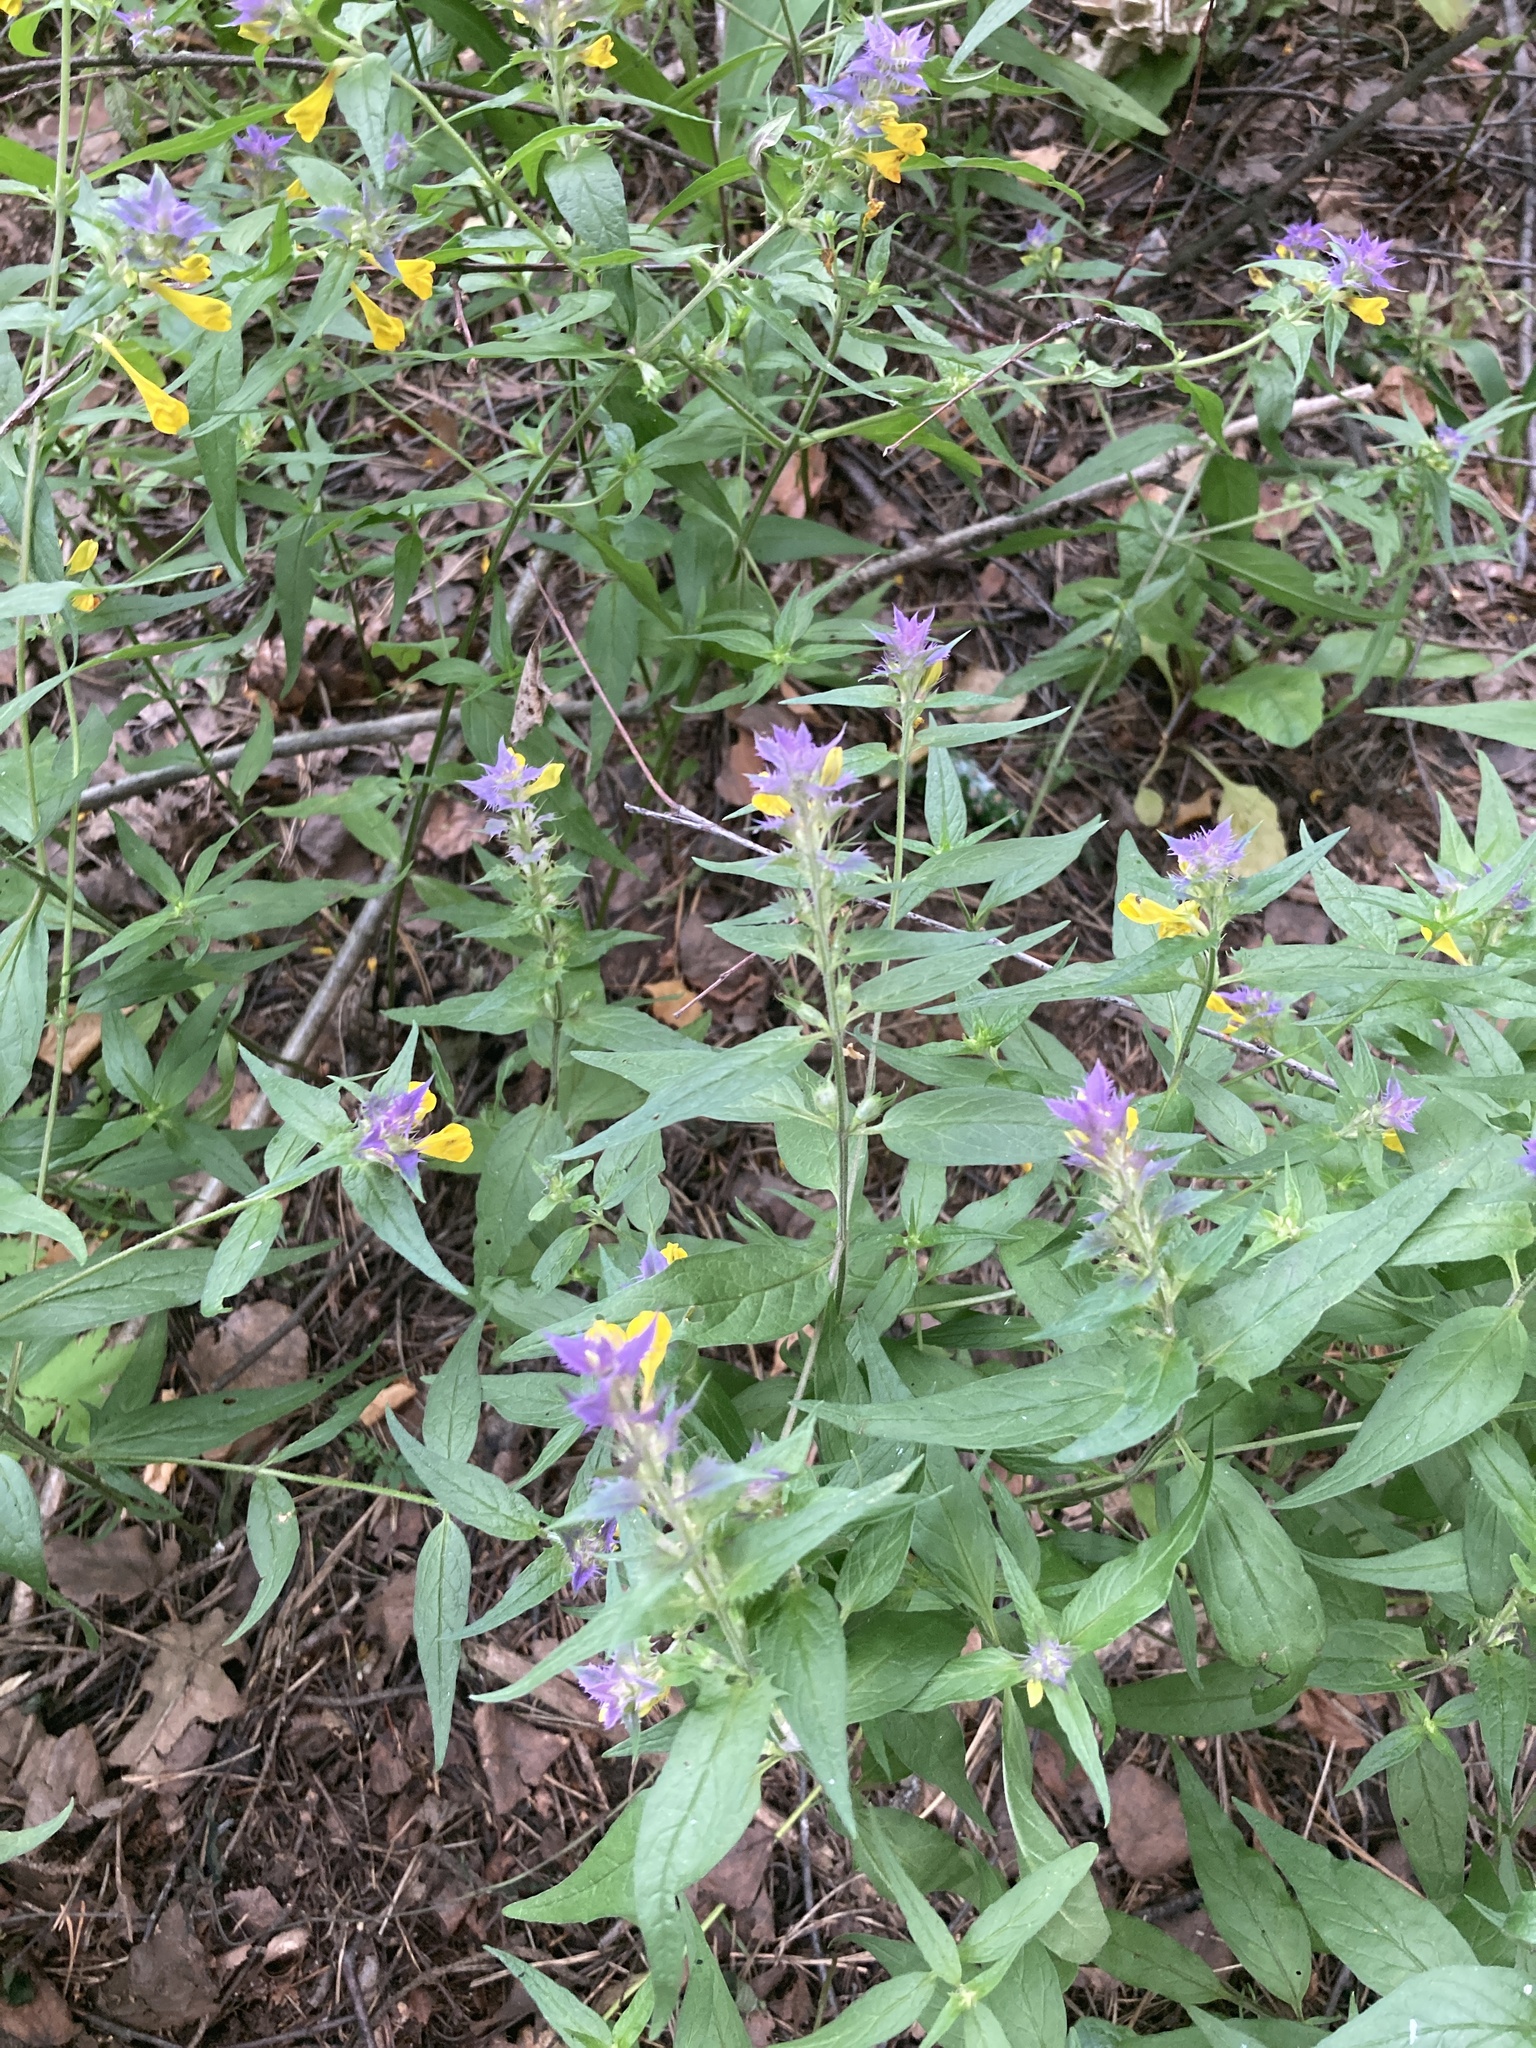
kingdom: Plantae
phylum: Tracheophyta
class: Magnoliopsida
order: Lamiales
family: Orobanchaceae
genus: Melampyrum
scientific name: Melampyrum nemorosum
